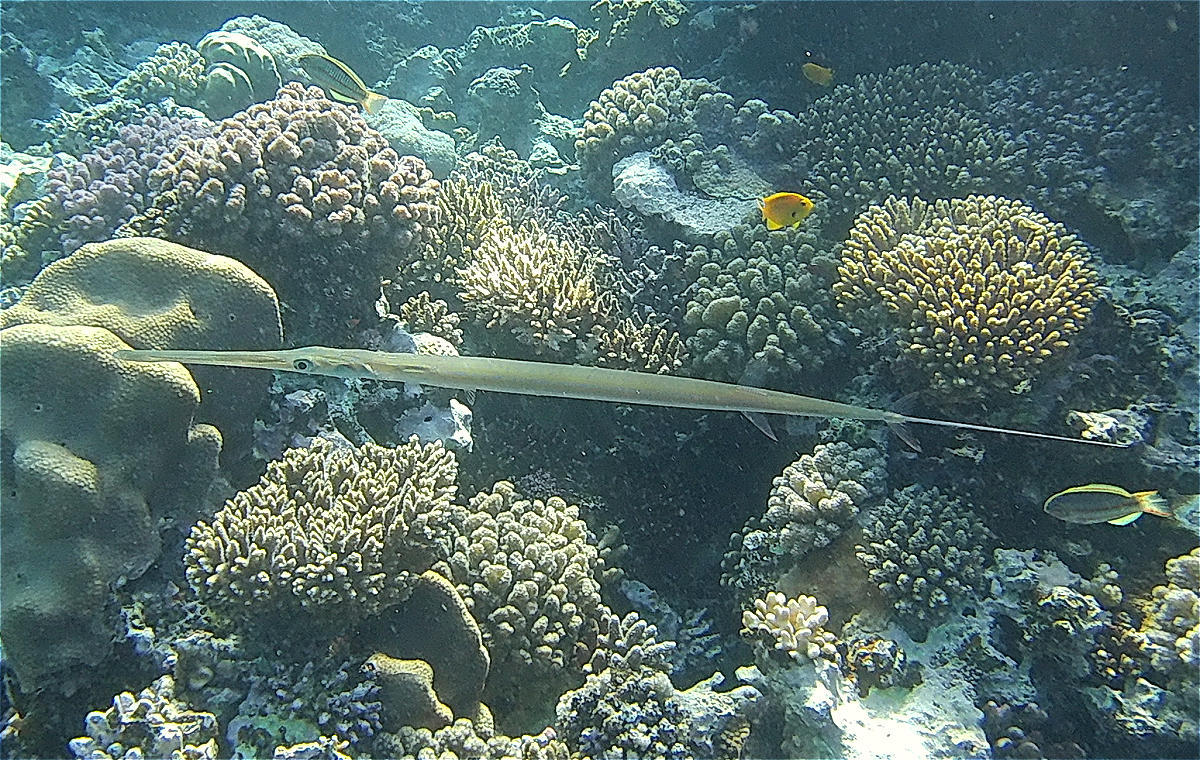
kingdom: Animalia
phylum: Chordata
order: Syngnathiformes
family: Fistulariidae
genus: Fistularia
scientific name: Fistularia commersonii
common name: Bluespotted cornetfish
